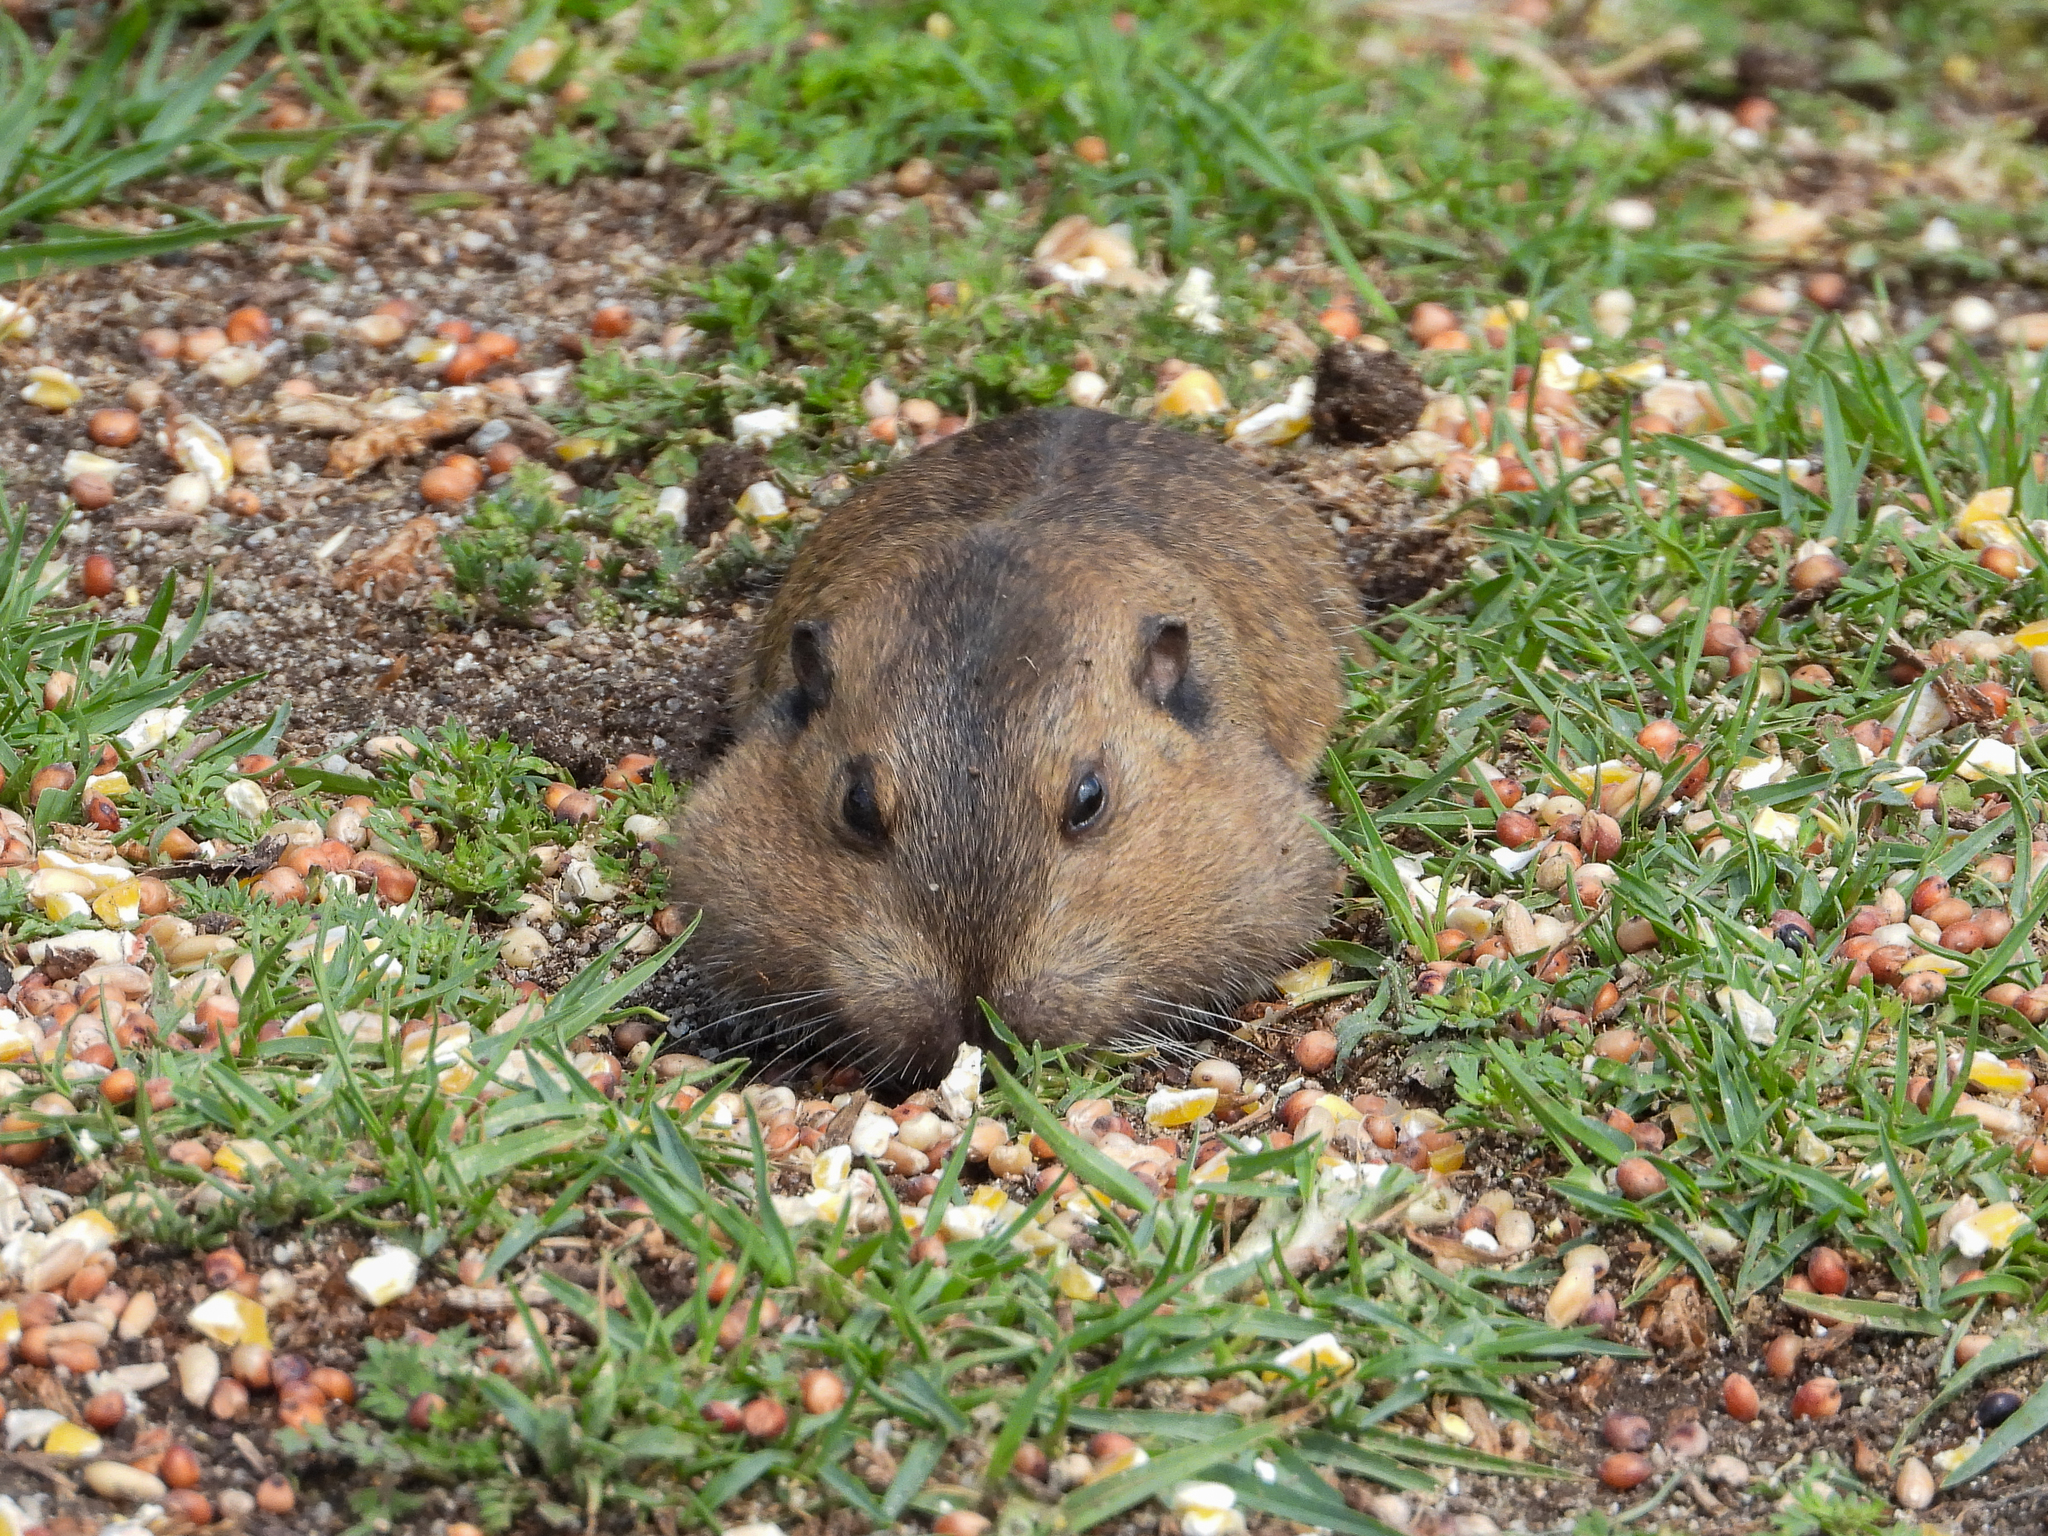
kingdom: Animalia
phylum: Chordata
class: Mammalia
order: Rodentia
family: Geomyidae
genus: Thomomys
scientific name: Thomomys bottae
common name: Botta's pocket gopher
